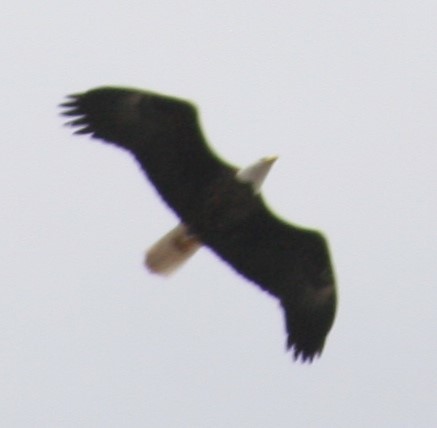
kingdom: Animalia
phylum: Chordata
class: Aves
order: Accipitriformes
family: Accipitridae
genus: Haliaeetus
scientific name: Haliaeetus leucocephalus
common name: Bald eagle
